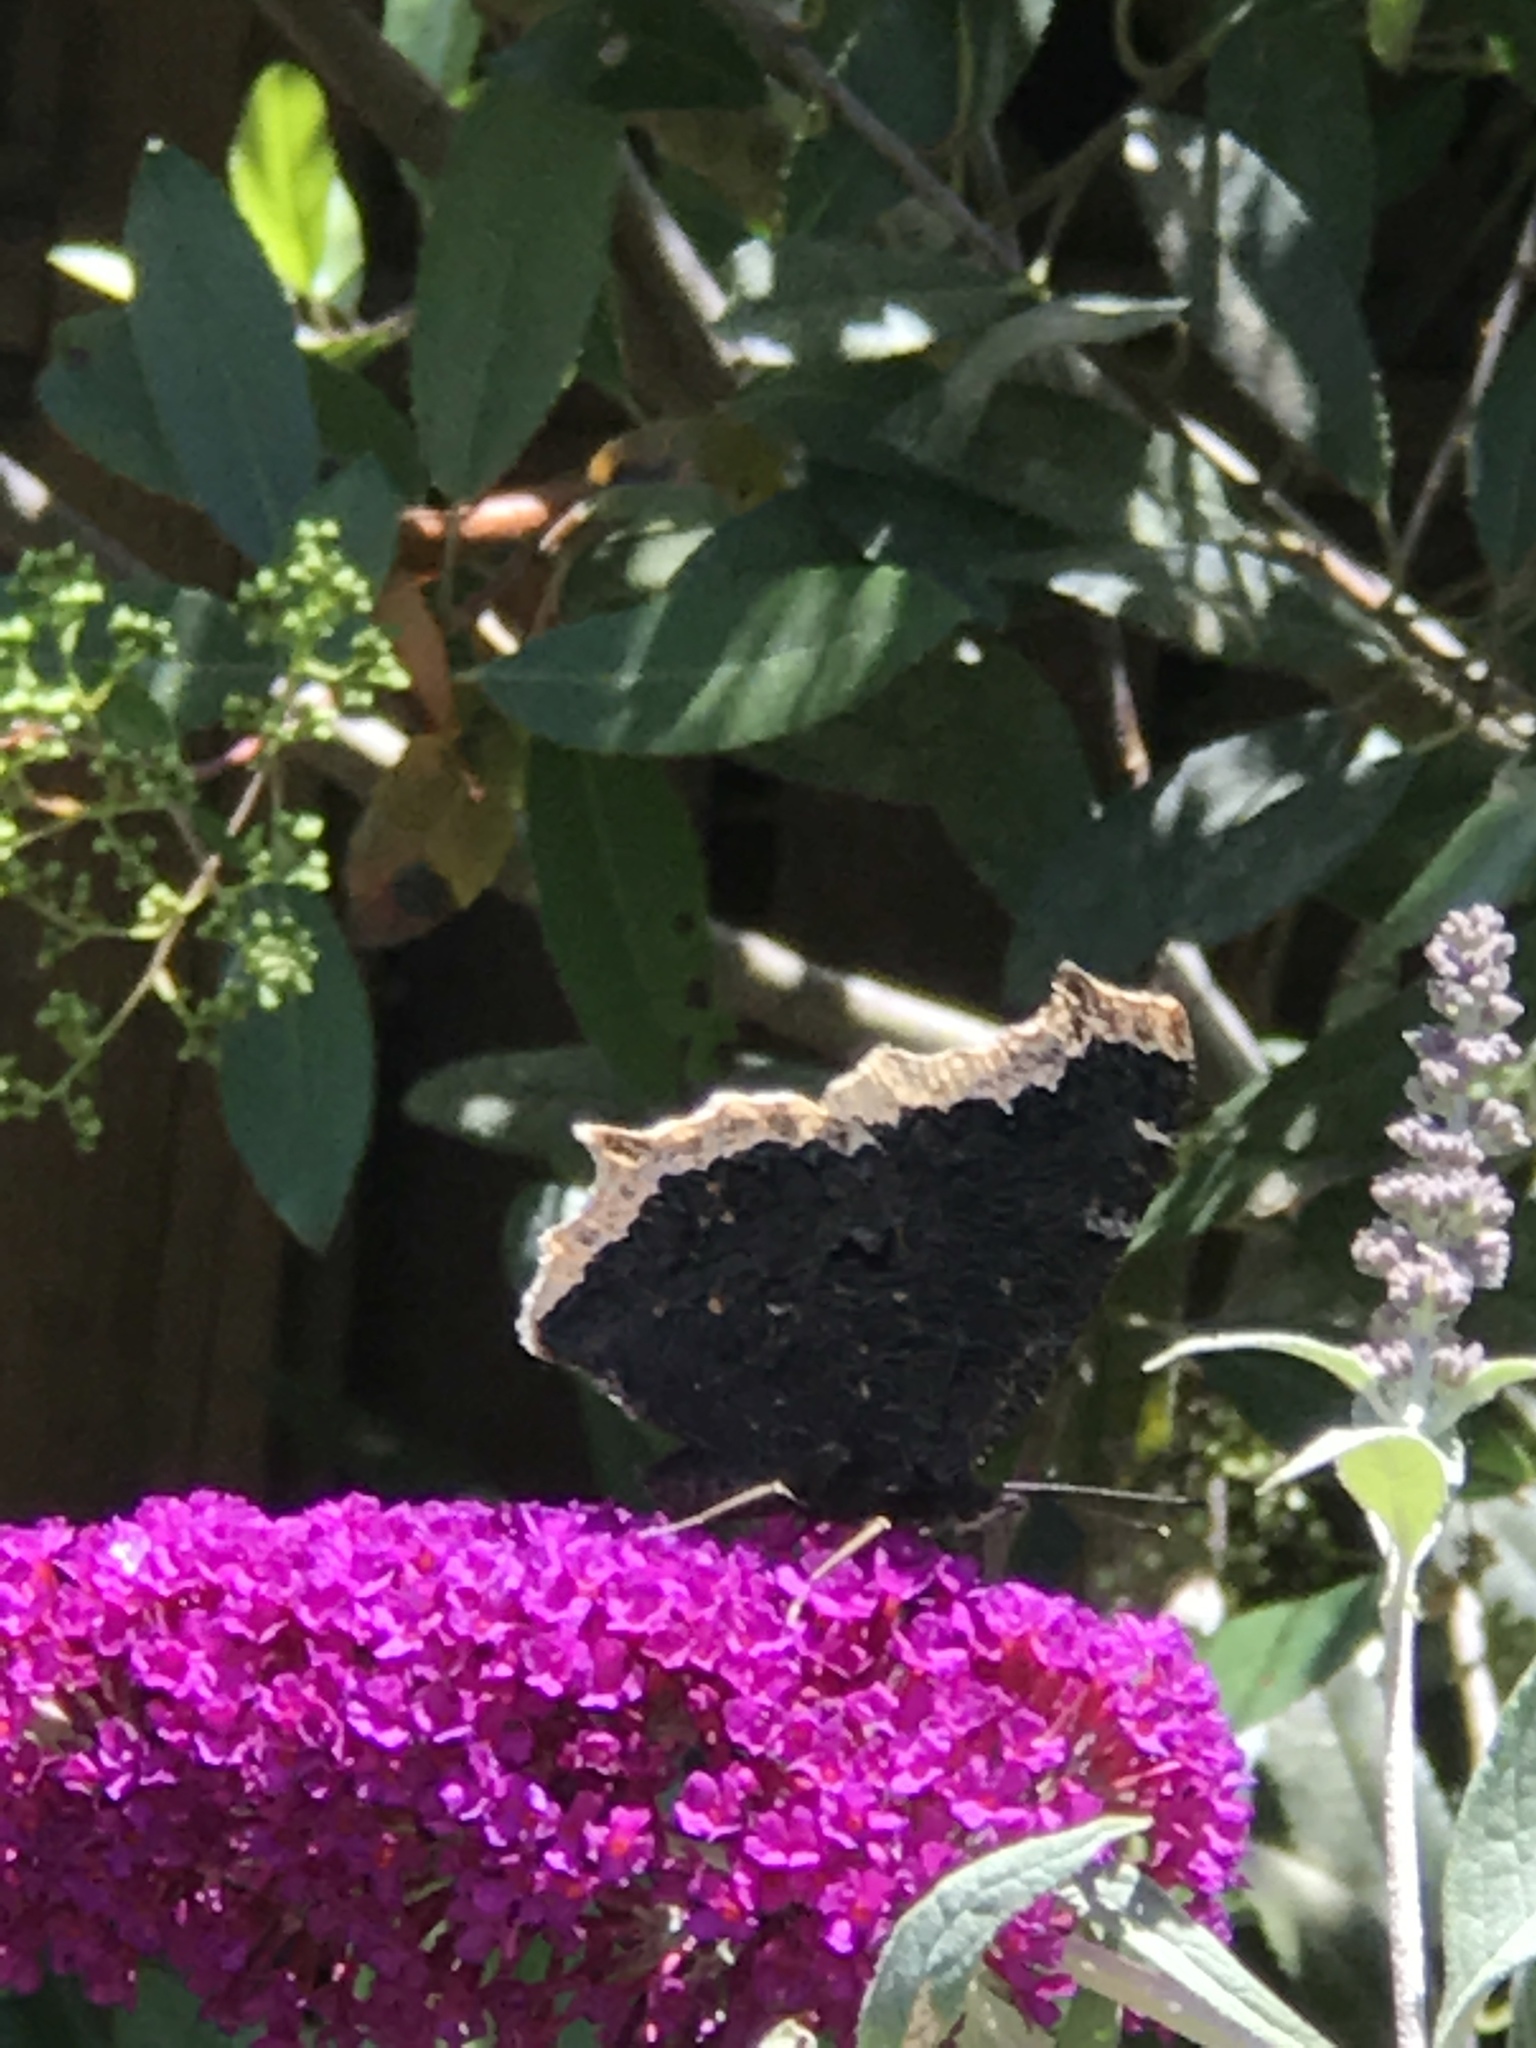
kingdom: Animalia
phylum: Arthropoda
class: Insecta
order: Lepidoptera
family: Nymphalidae
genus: Nymphalis
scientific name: Nymphalis antiopa
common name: Camberwell beauty
